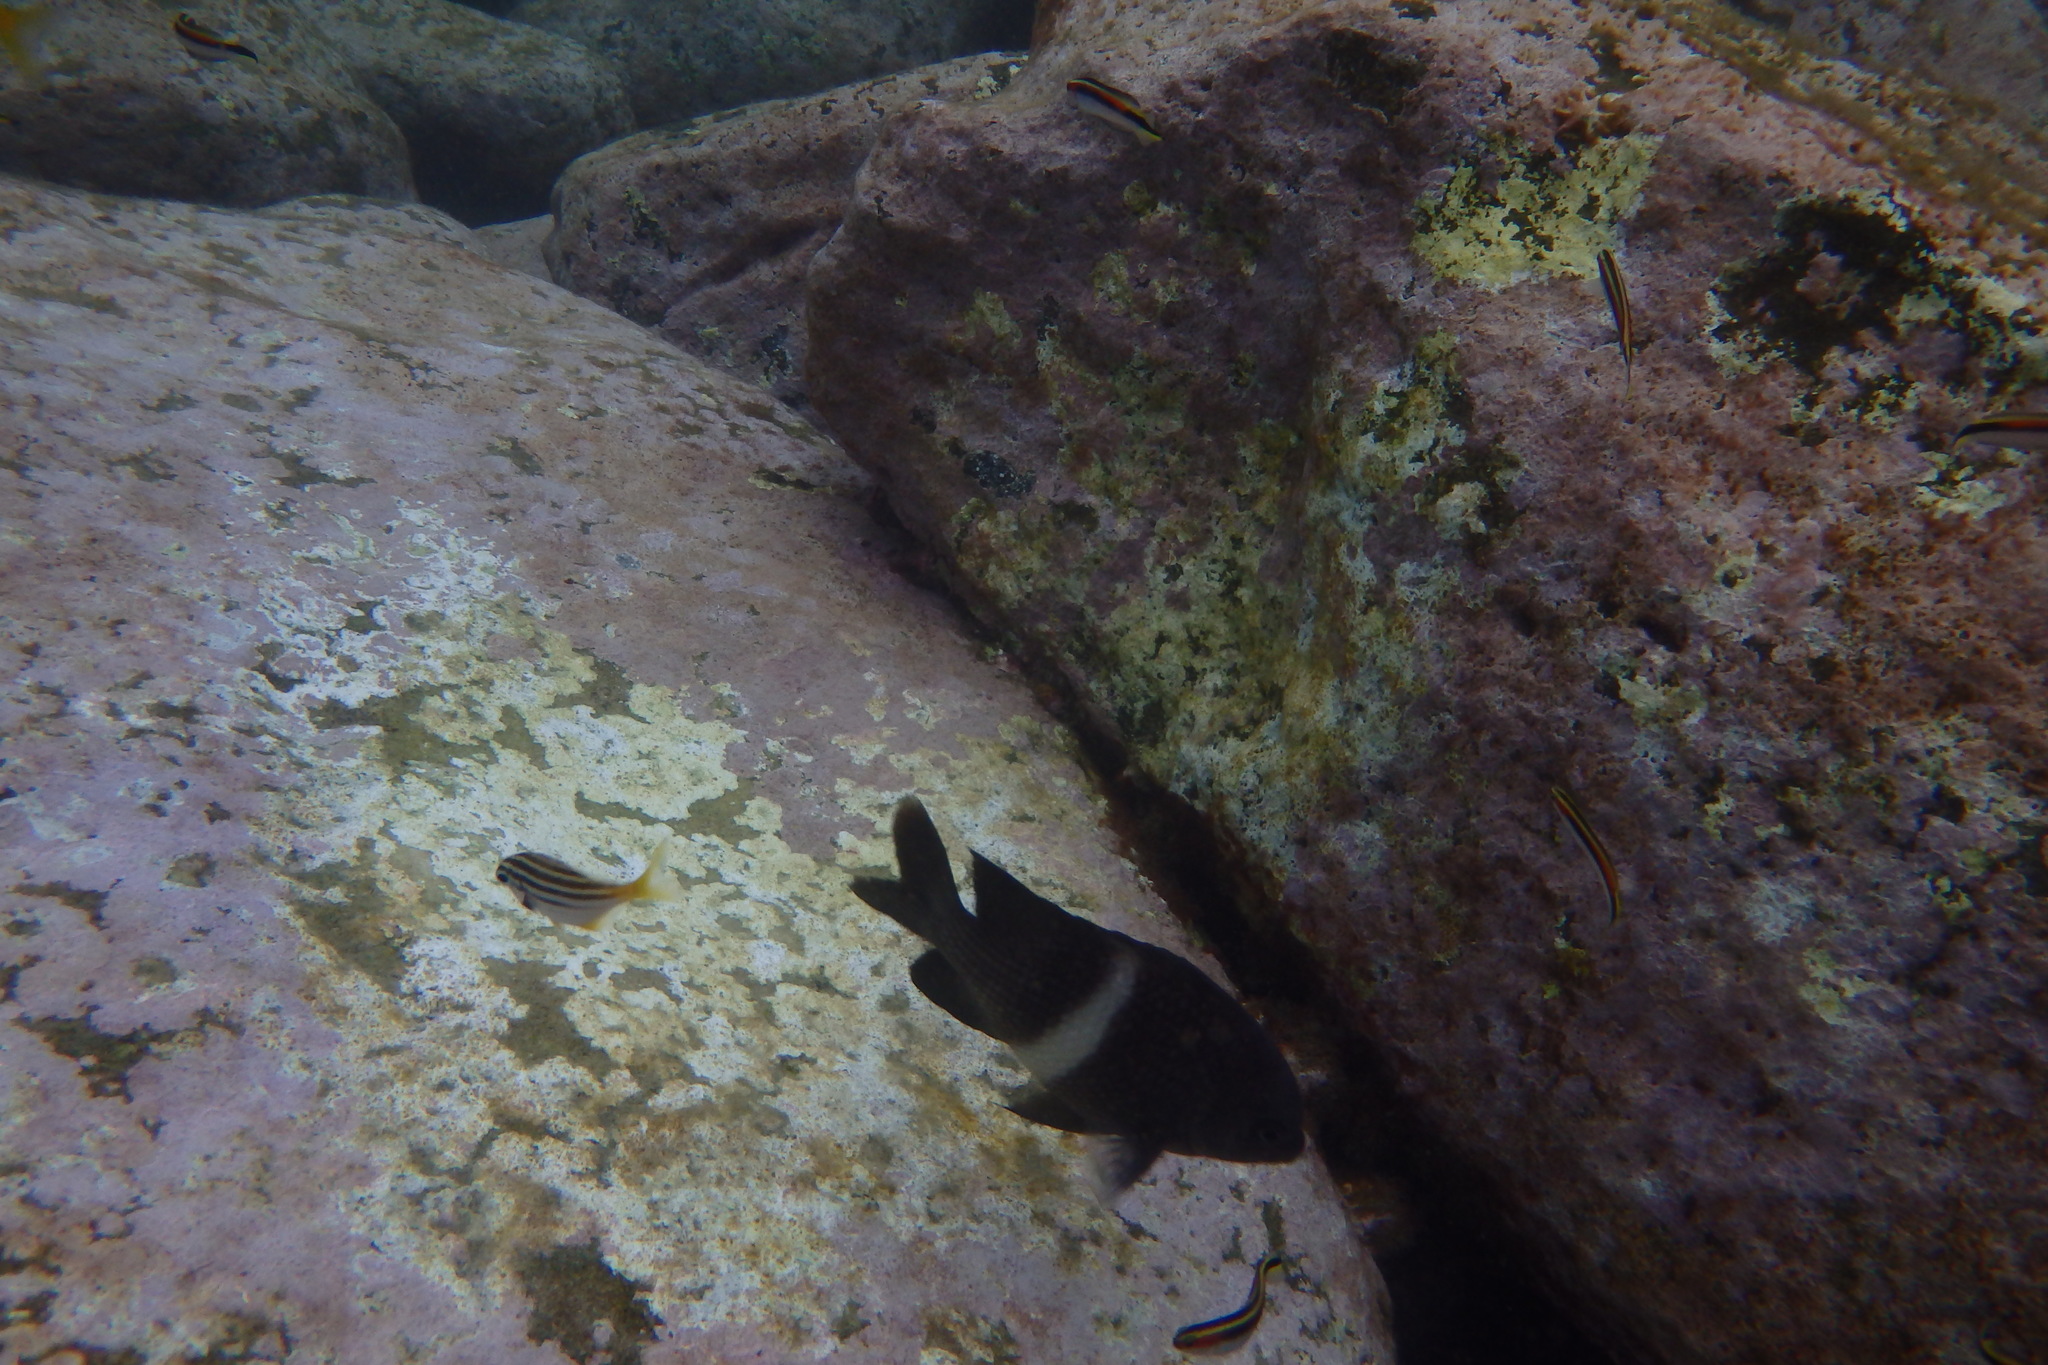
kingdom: Animalia
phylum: Chordata
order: Perciformes
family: Pomacentridae
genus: Parma
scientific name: Parma unifasciata
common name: Girdled parma
